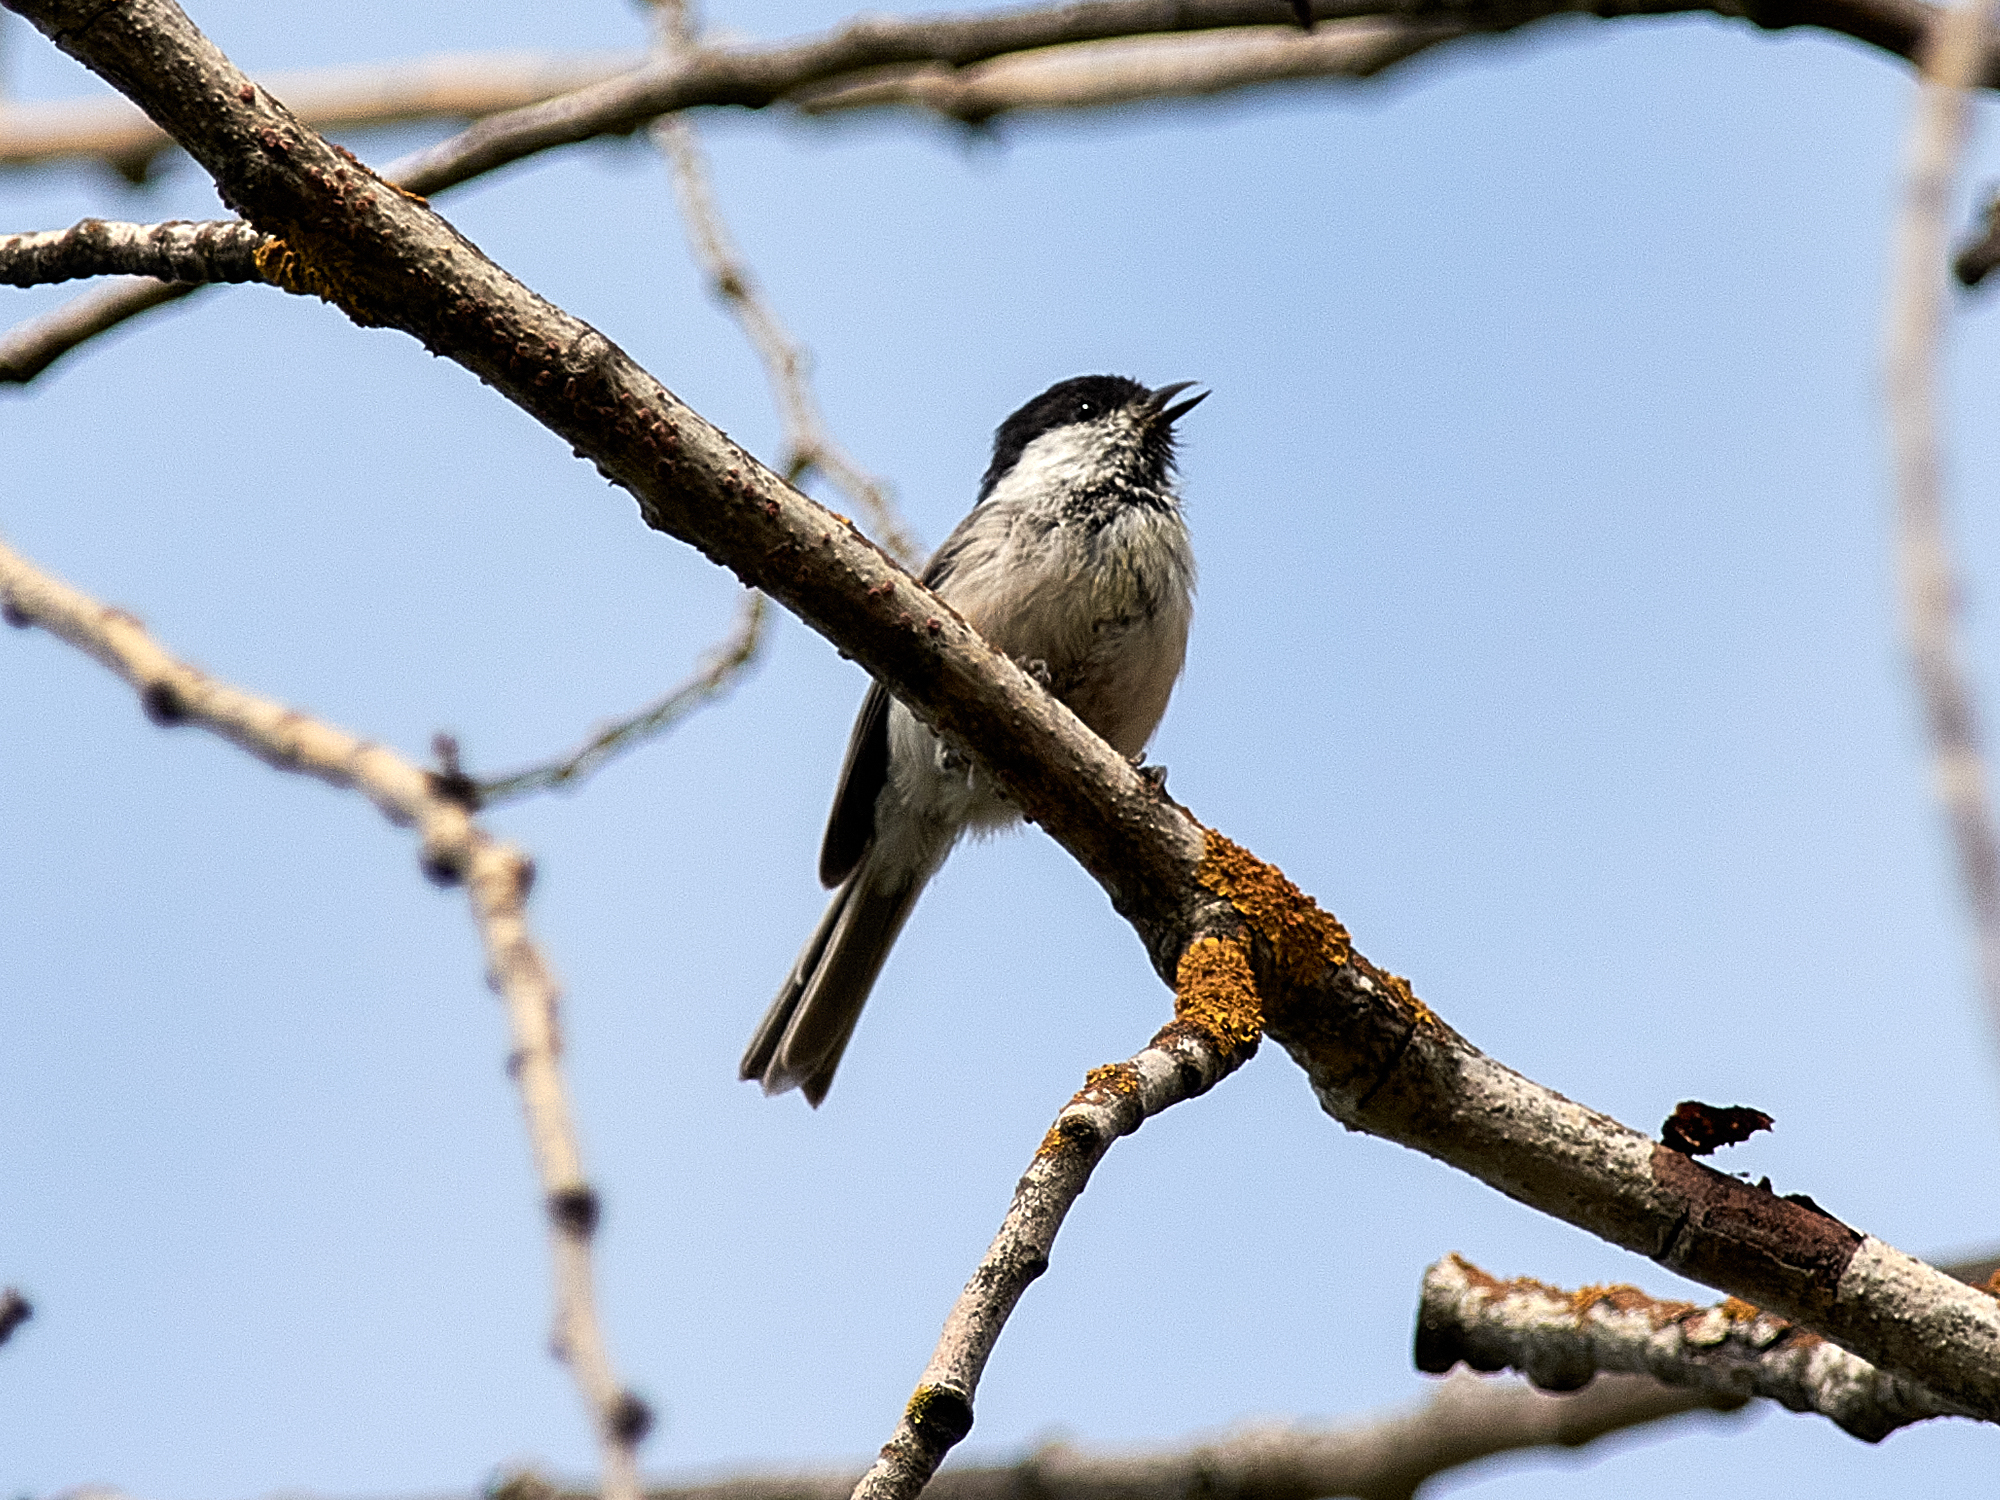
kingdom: Animalia
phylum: Chordata
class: Aves
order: Passeriformes
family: Paridae
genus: Poecile
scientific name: Poecile montanus
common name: Willow tit
